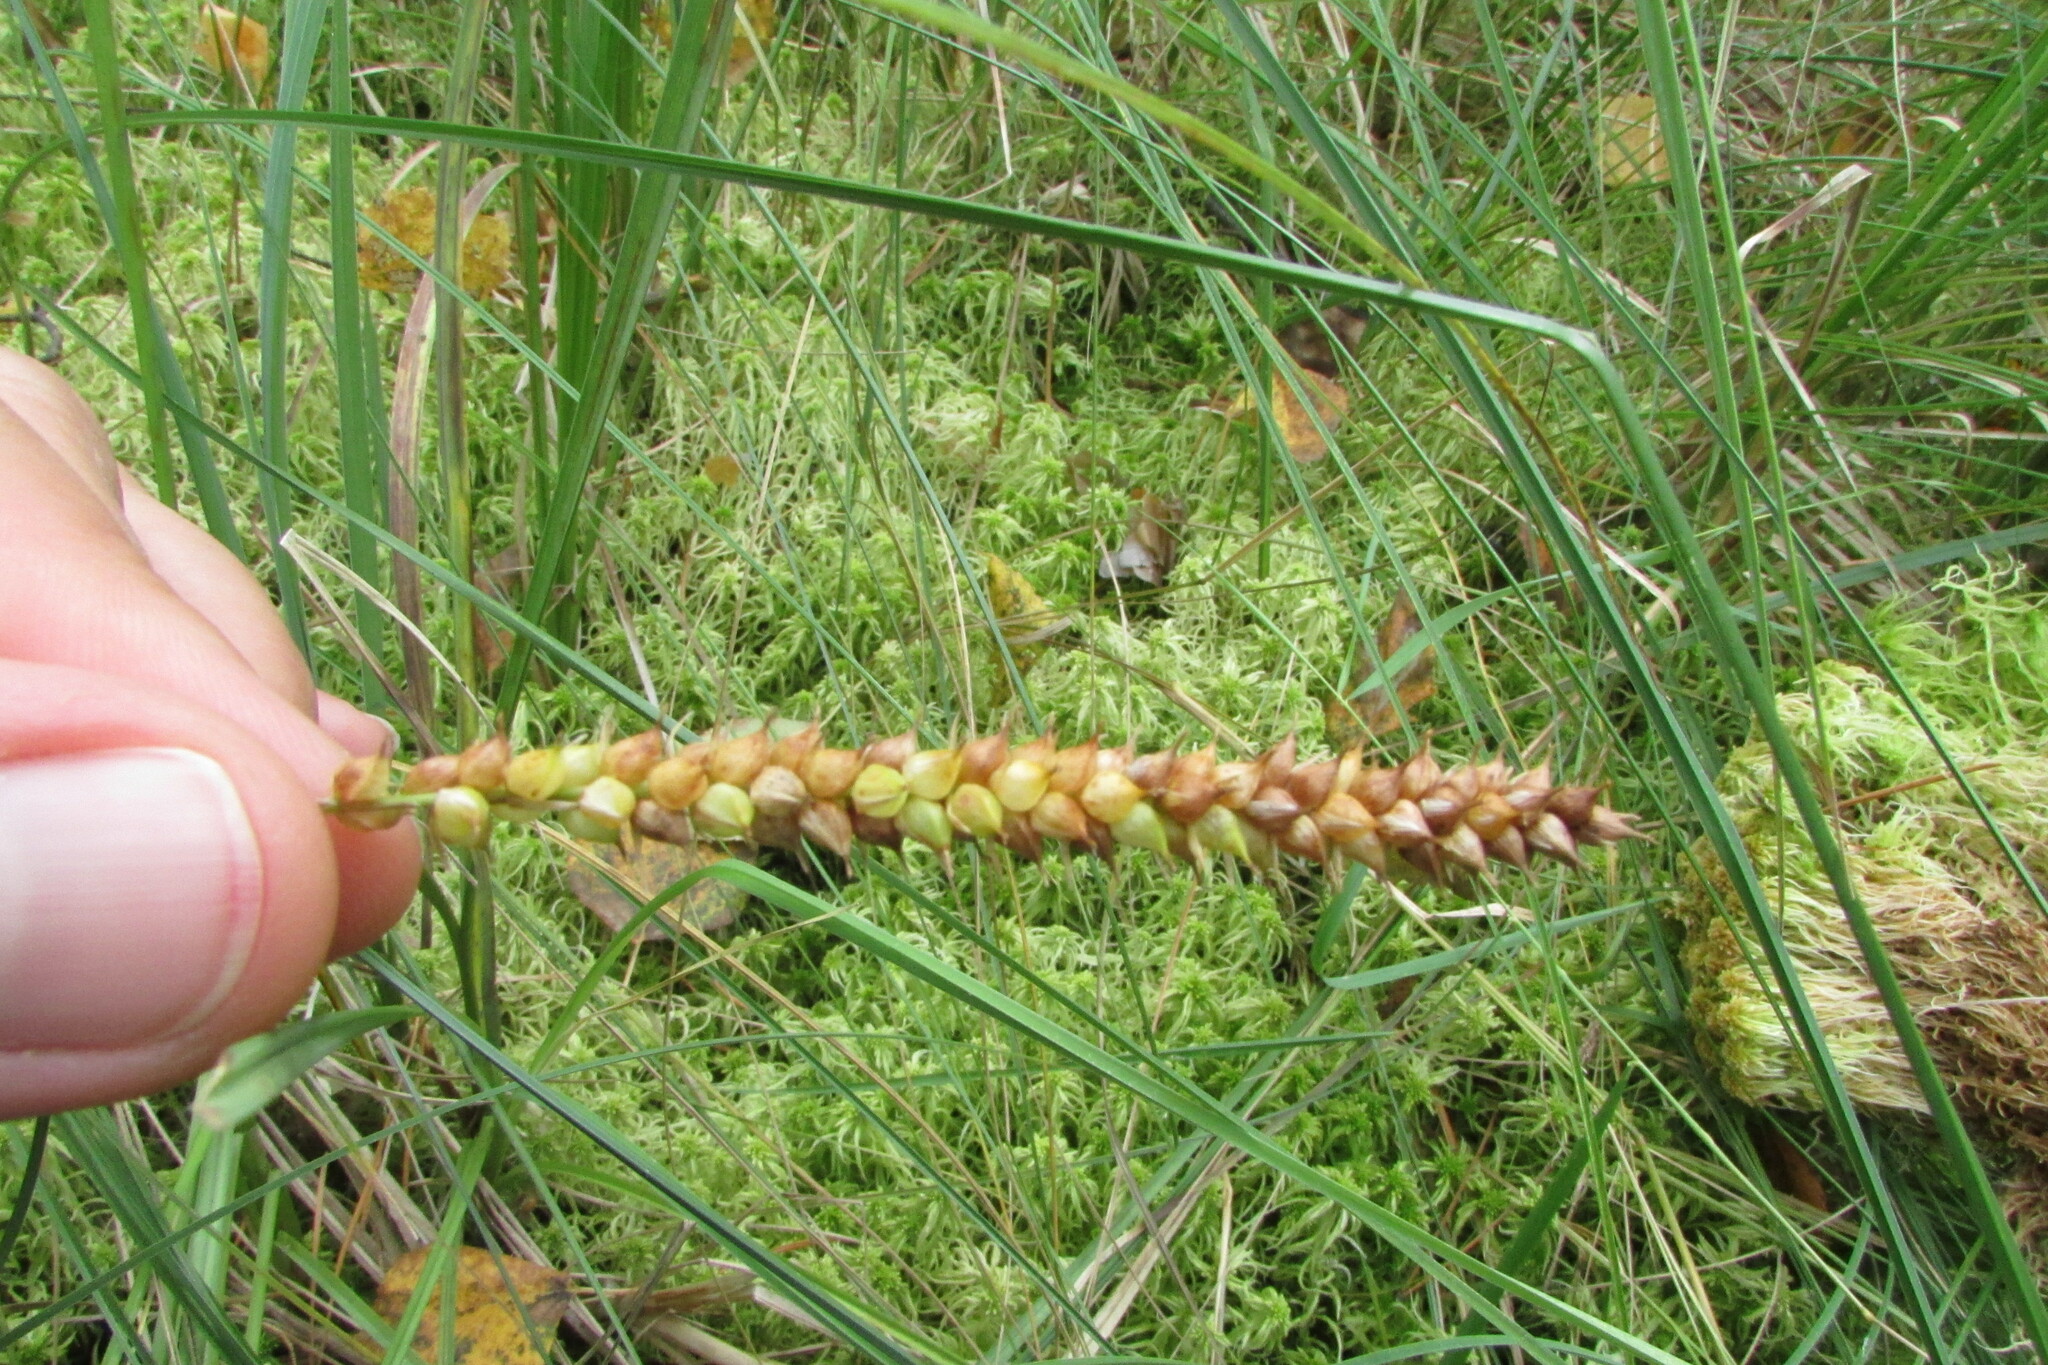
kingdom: Plantae
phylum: Tracheophyta
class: Liliopsida
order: Poales
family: Cyperaceae
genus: Carex
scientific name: Carex rostrata
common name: Bottle sedge
